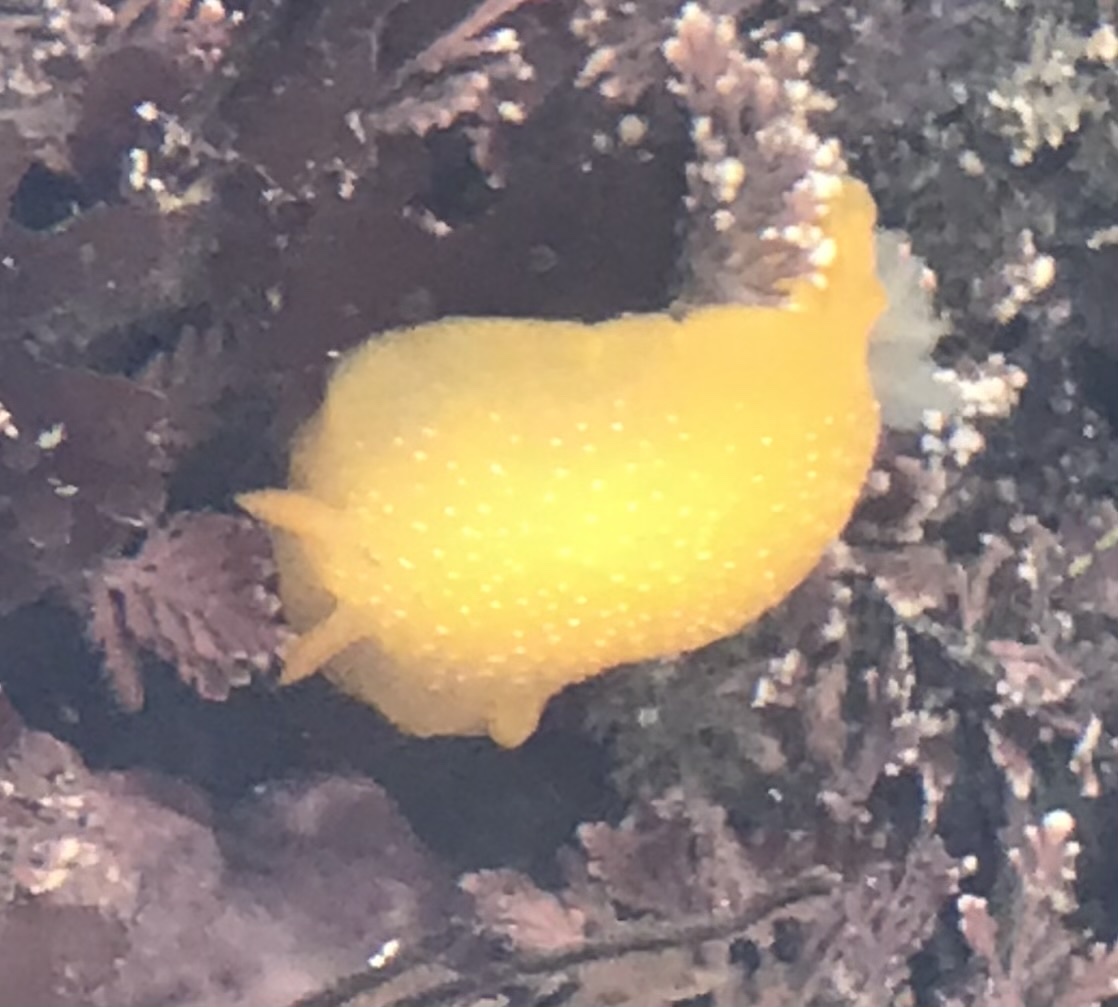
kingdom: Animalia
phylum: Mollusca
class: Gastropoda
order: Nudibranchia
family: Dendrodorididae
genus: Doriopsilla
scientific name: Doriopsilla fulva
